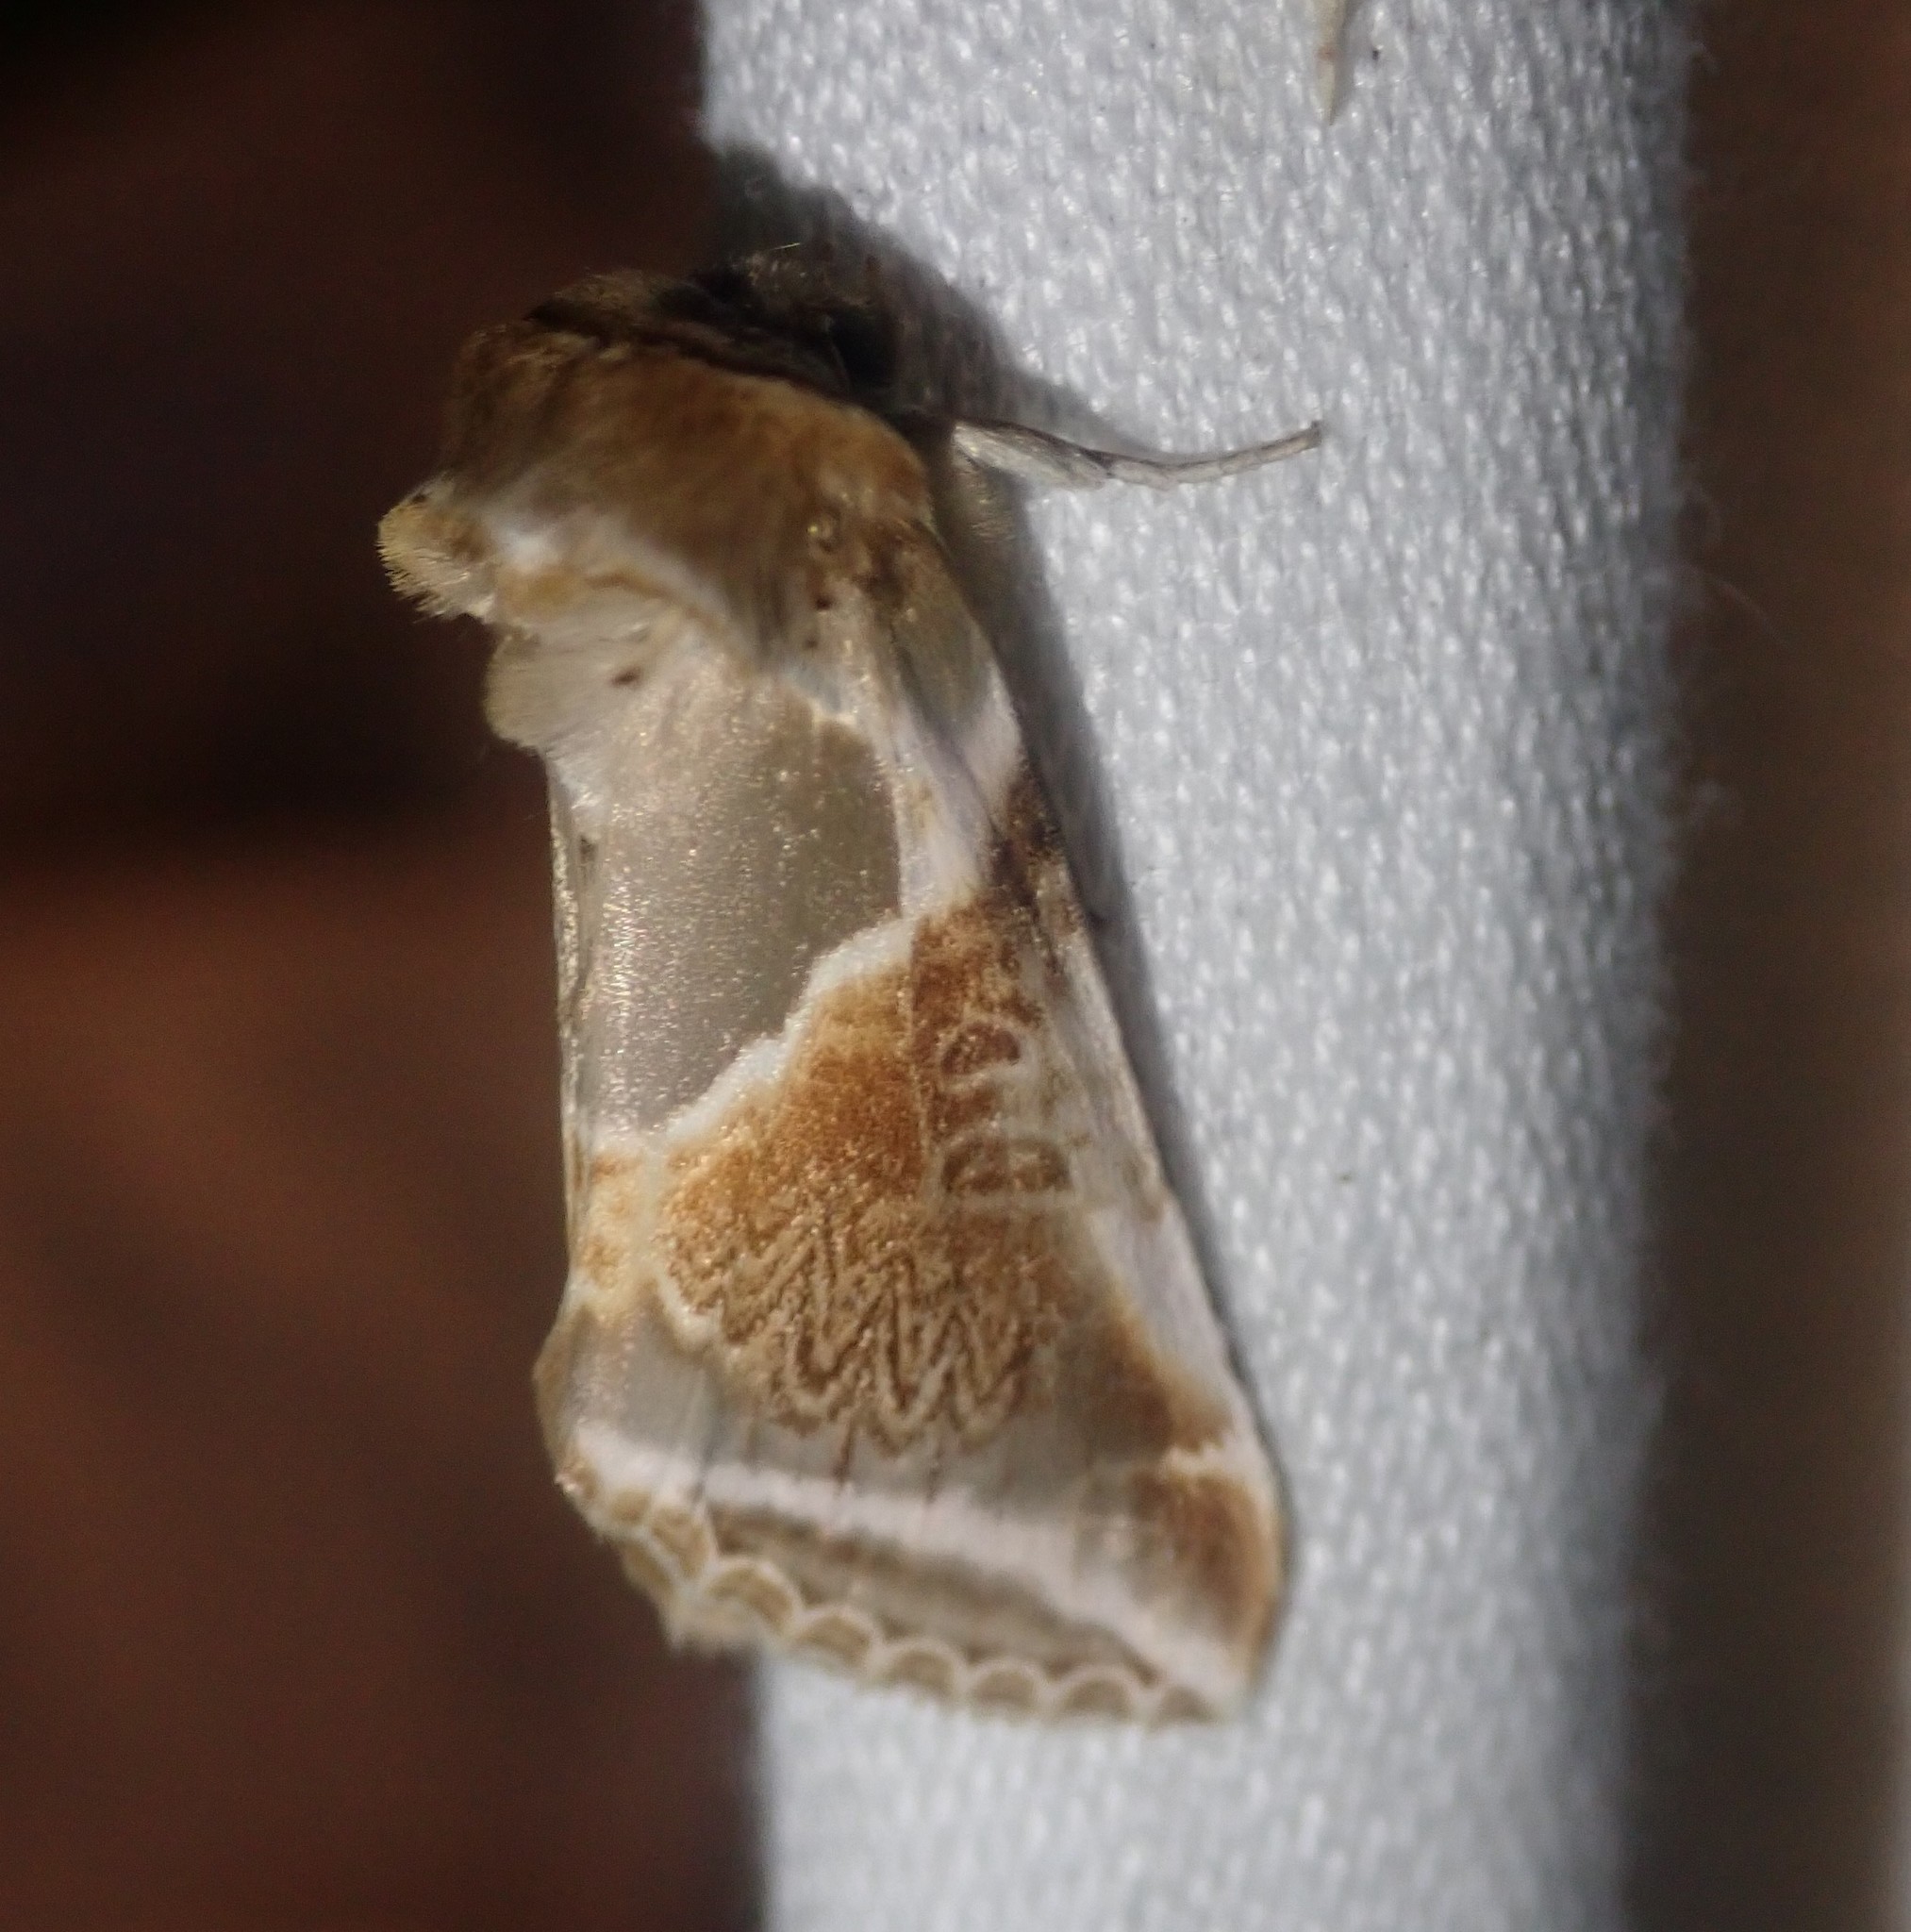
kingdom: Animalia
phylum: Arthropoda
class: Insecta
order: Lepidoptera
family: Drepanidae
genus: Habrosyne
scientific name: Habrosyne pyritoides
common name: Buff arches
